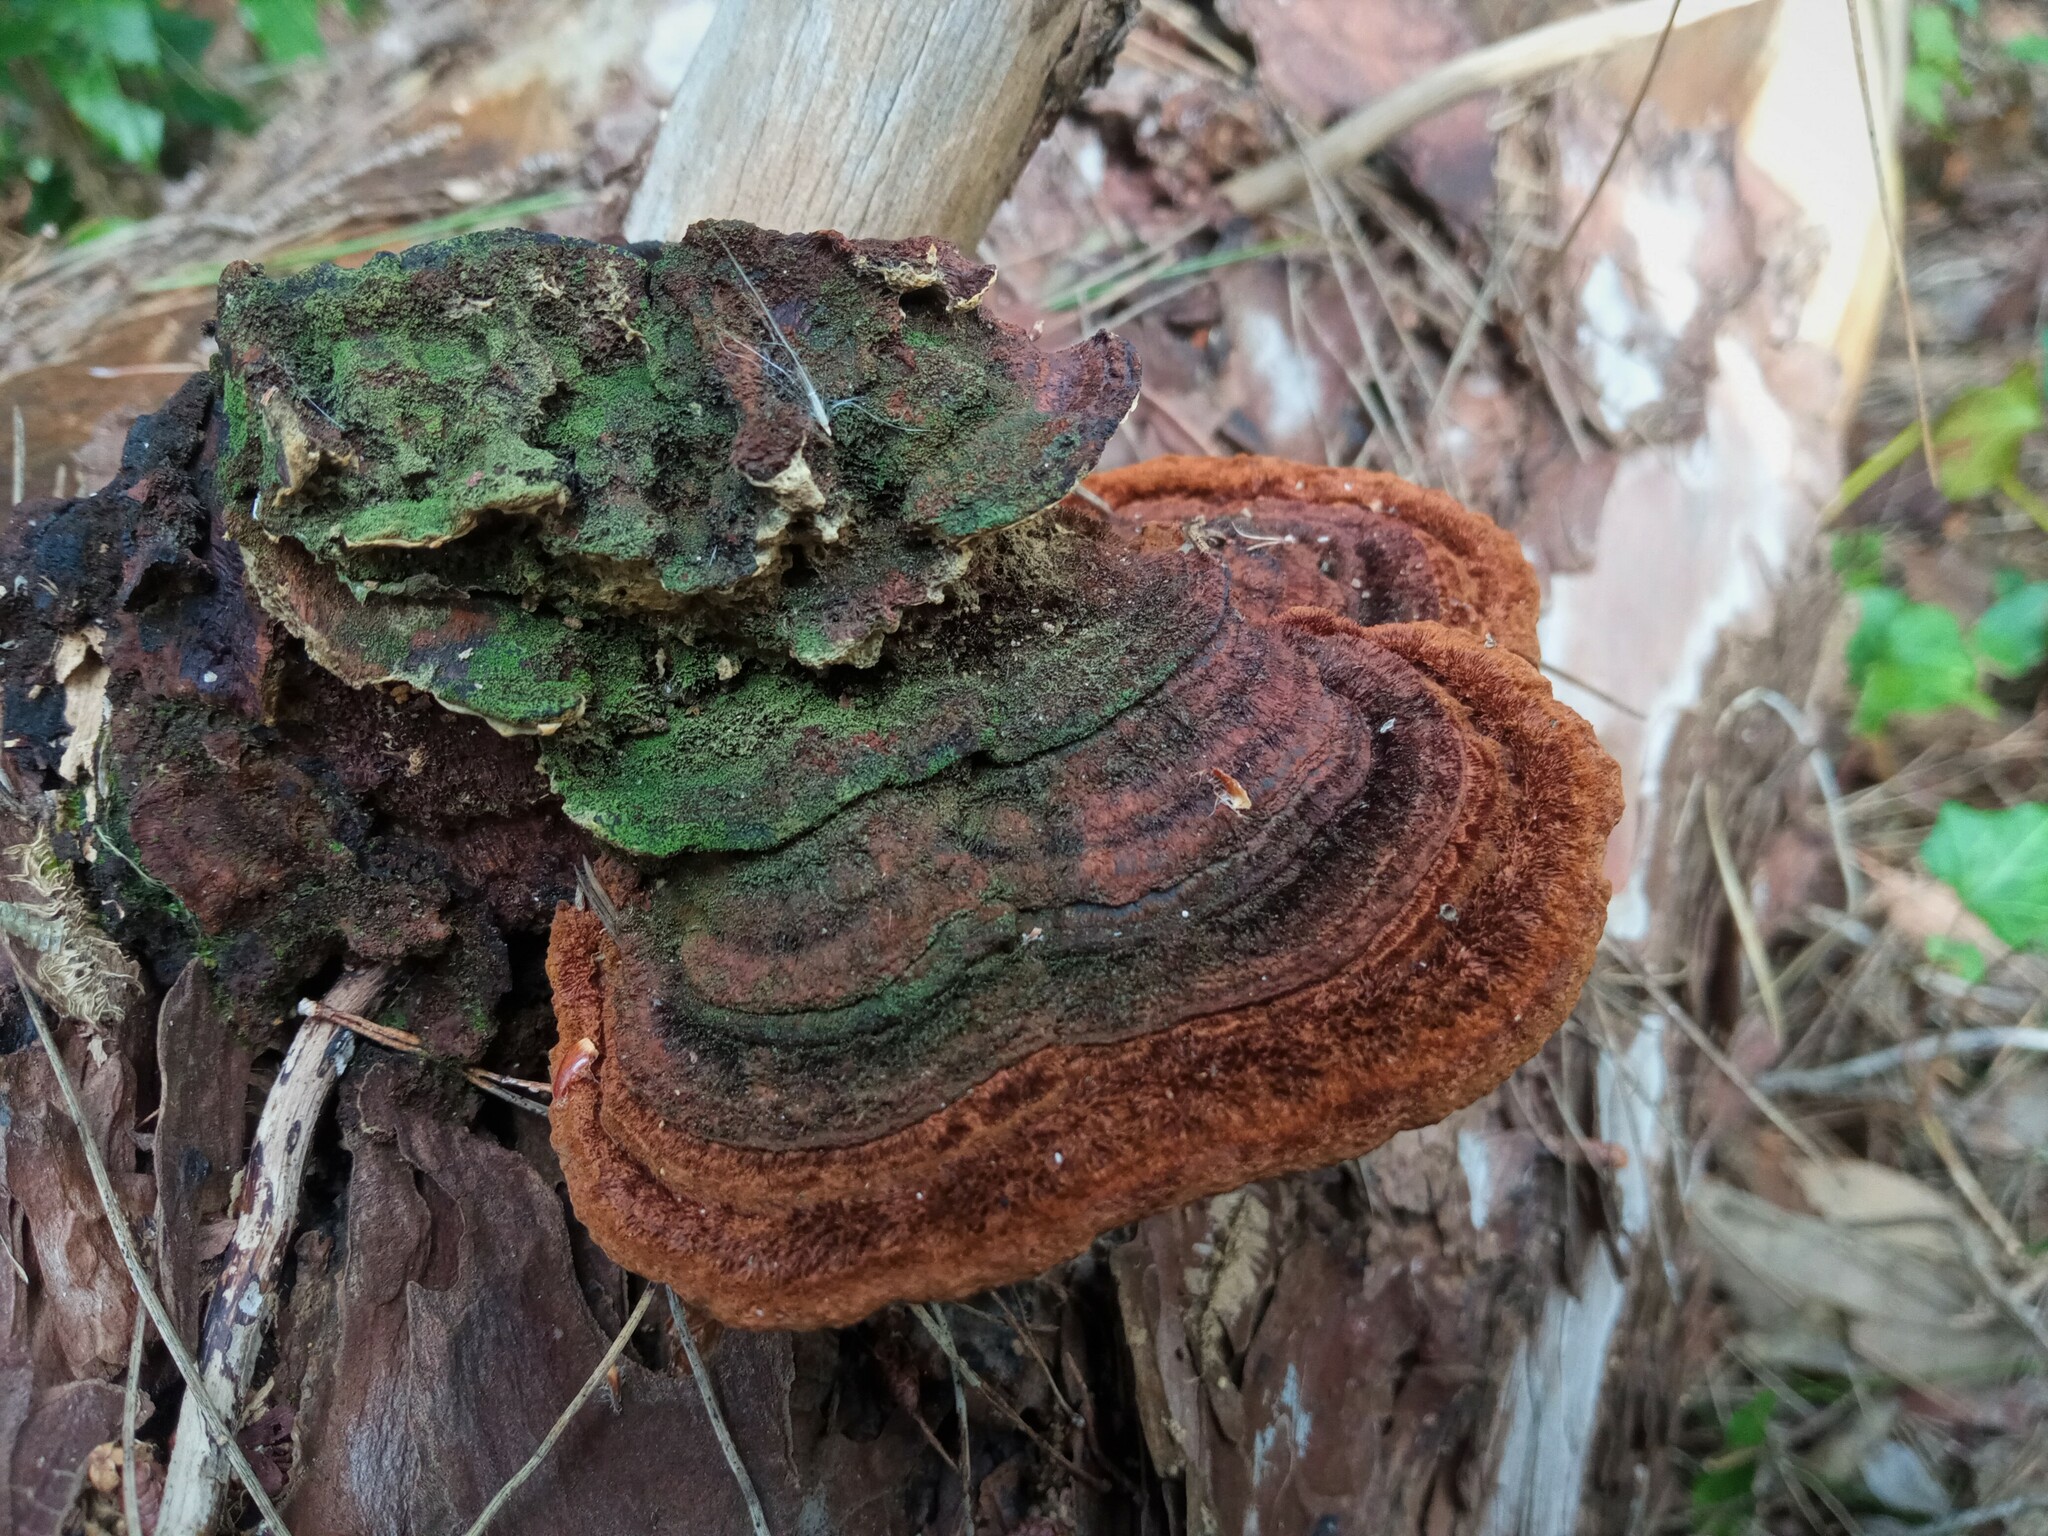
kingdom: Fungi
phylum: Basidiomycota
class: Agaricomycetes
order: Hymenochaetales
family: Hymenochaetaceae
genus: Porodaedalea
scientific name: Porodaedalea pini
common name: Pine bracket
